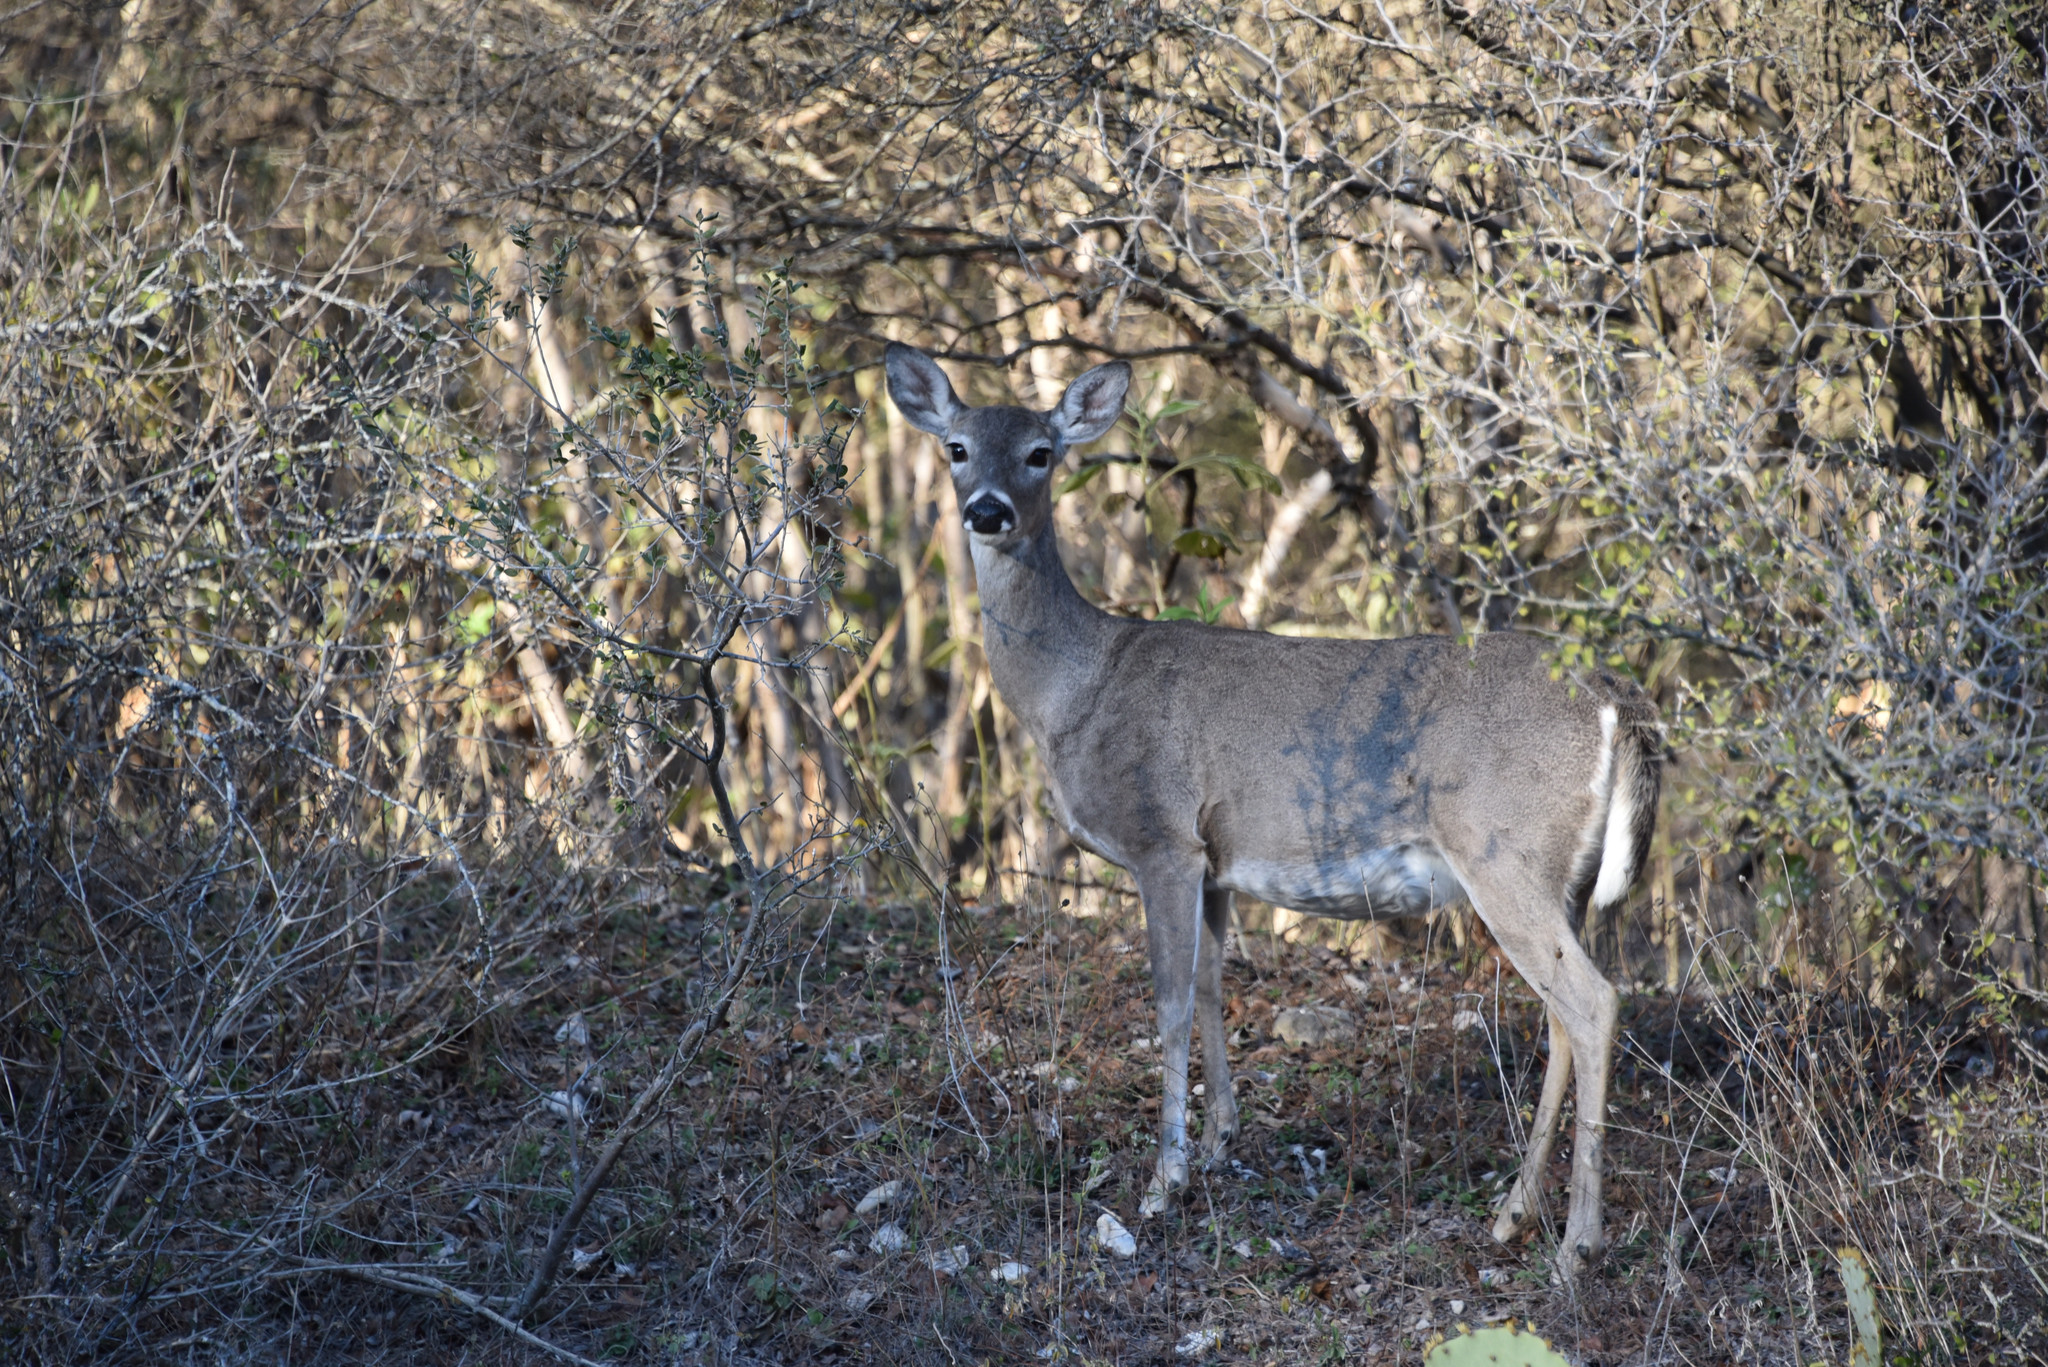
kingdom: Animalia
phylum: Chordata
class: Mammalia
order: Artiodactyla
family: Cervidae
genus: Odocoileus
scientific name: Odocoileus virginianus
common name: White-tailed deer
